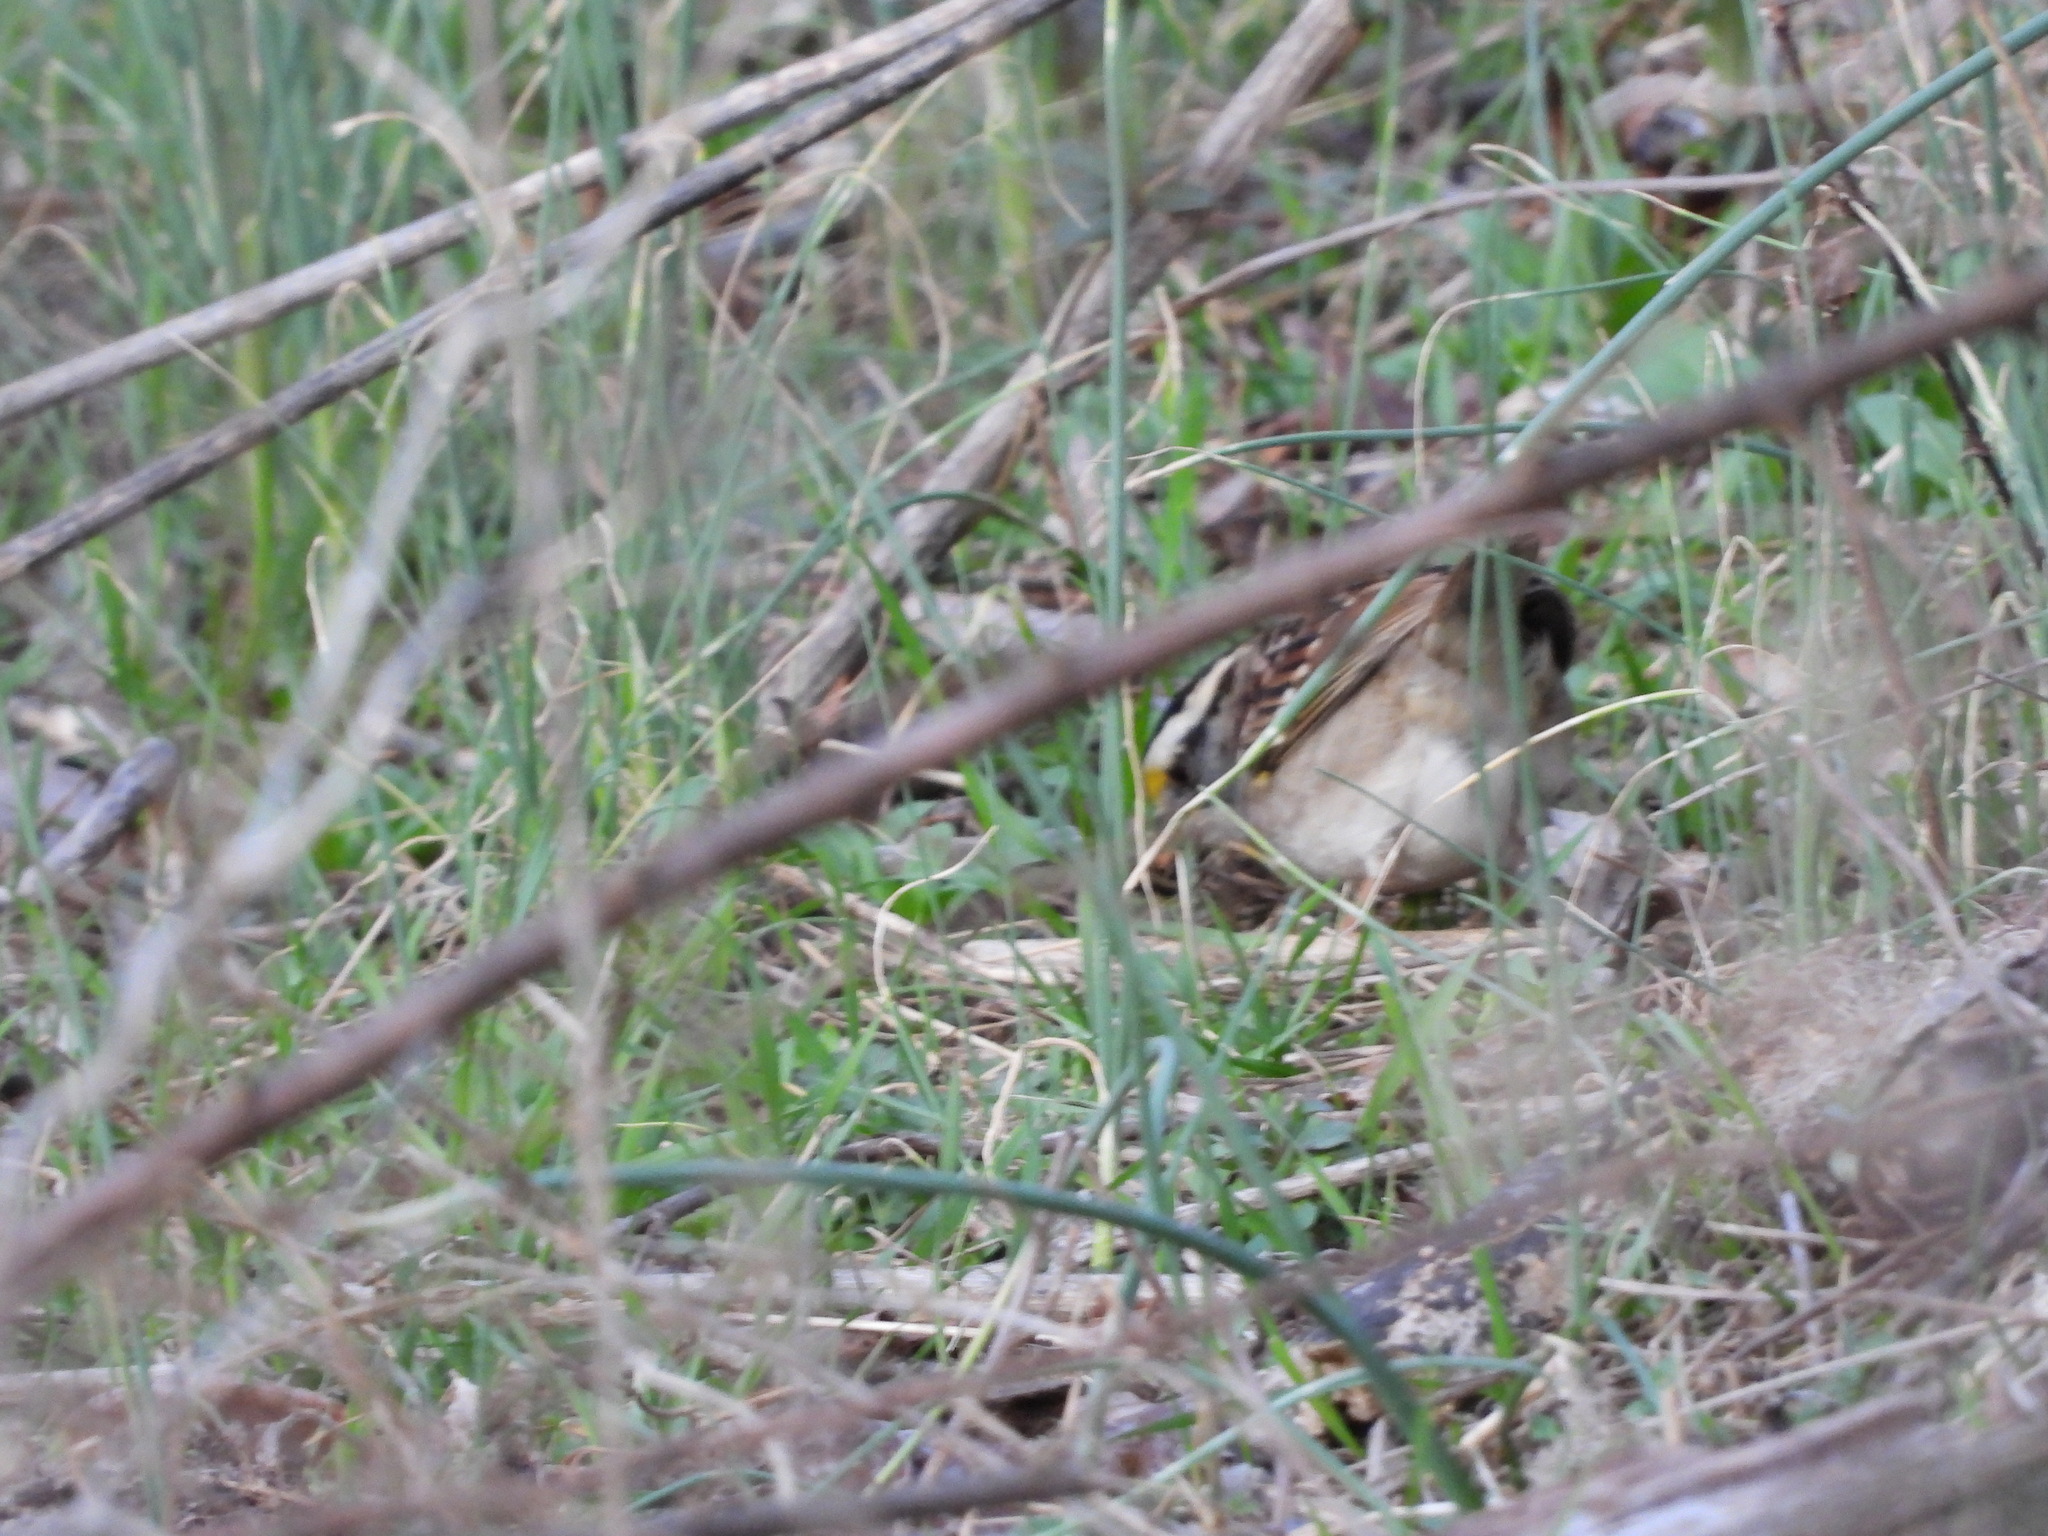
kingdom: Animalia
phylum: Chordata
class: Aves
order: Passeriformes
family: Passerellidae
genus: Zonotrichia
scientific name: Zonotrichia albicollis
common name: White-throated sparrow
